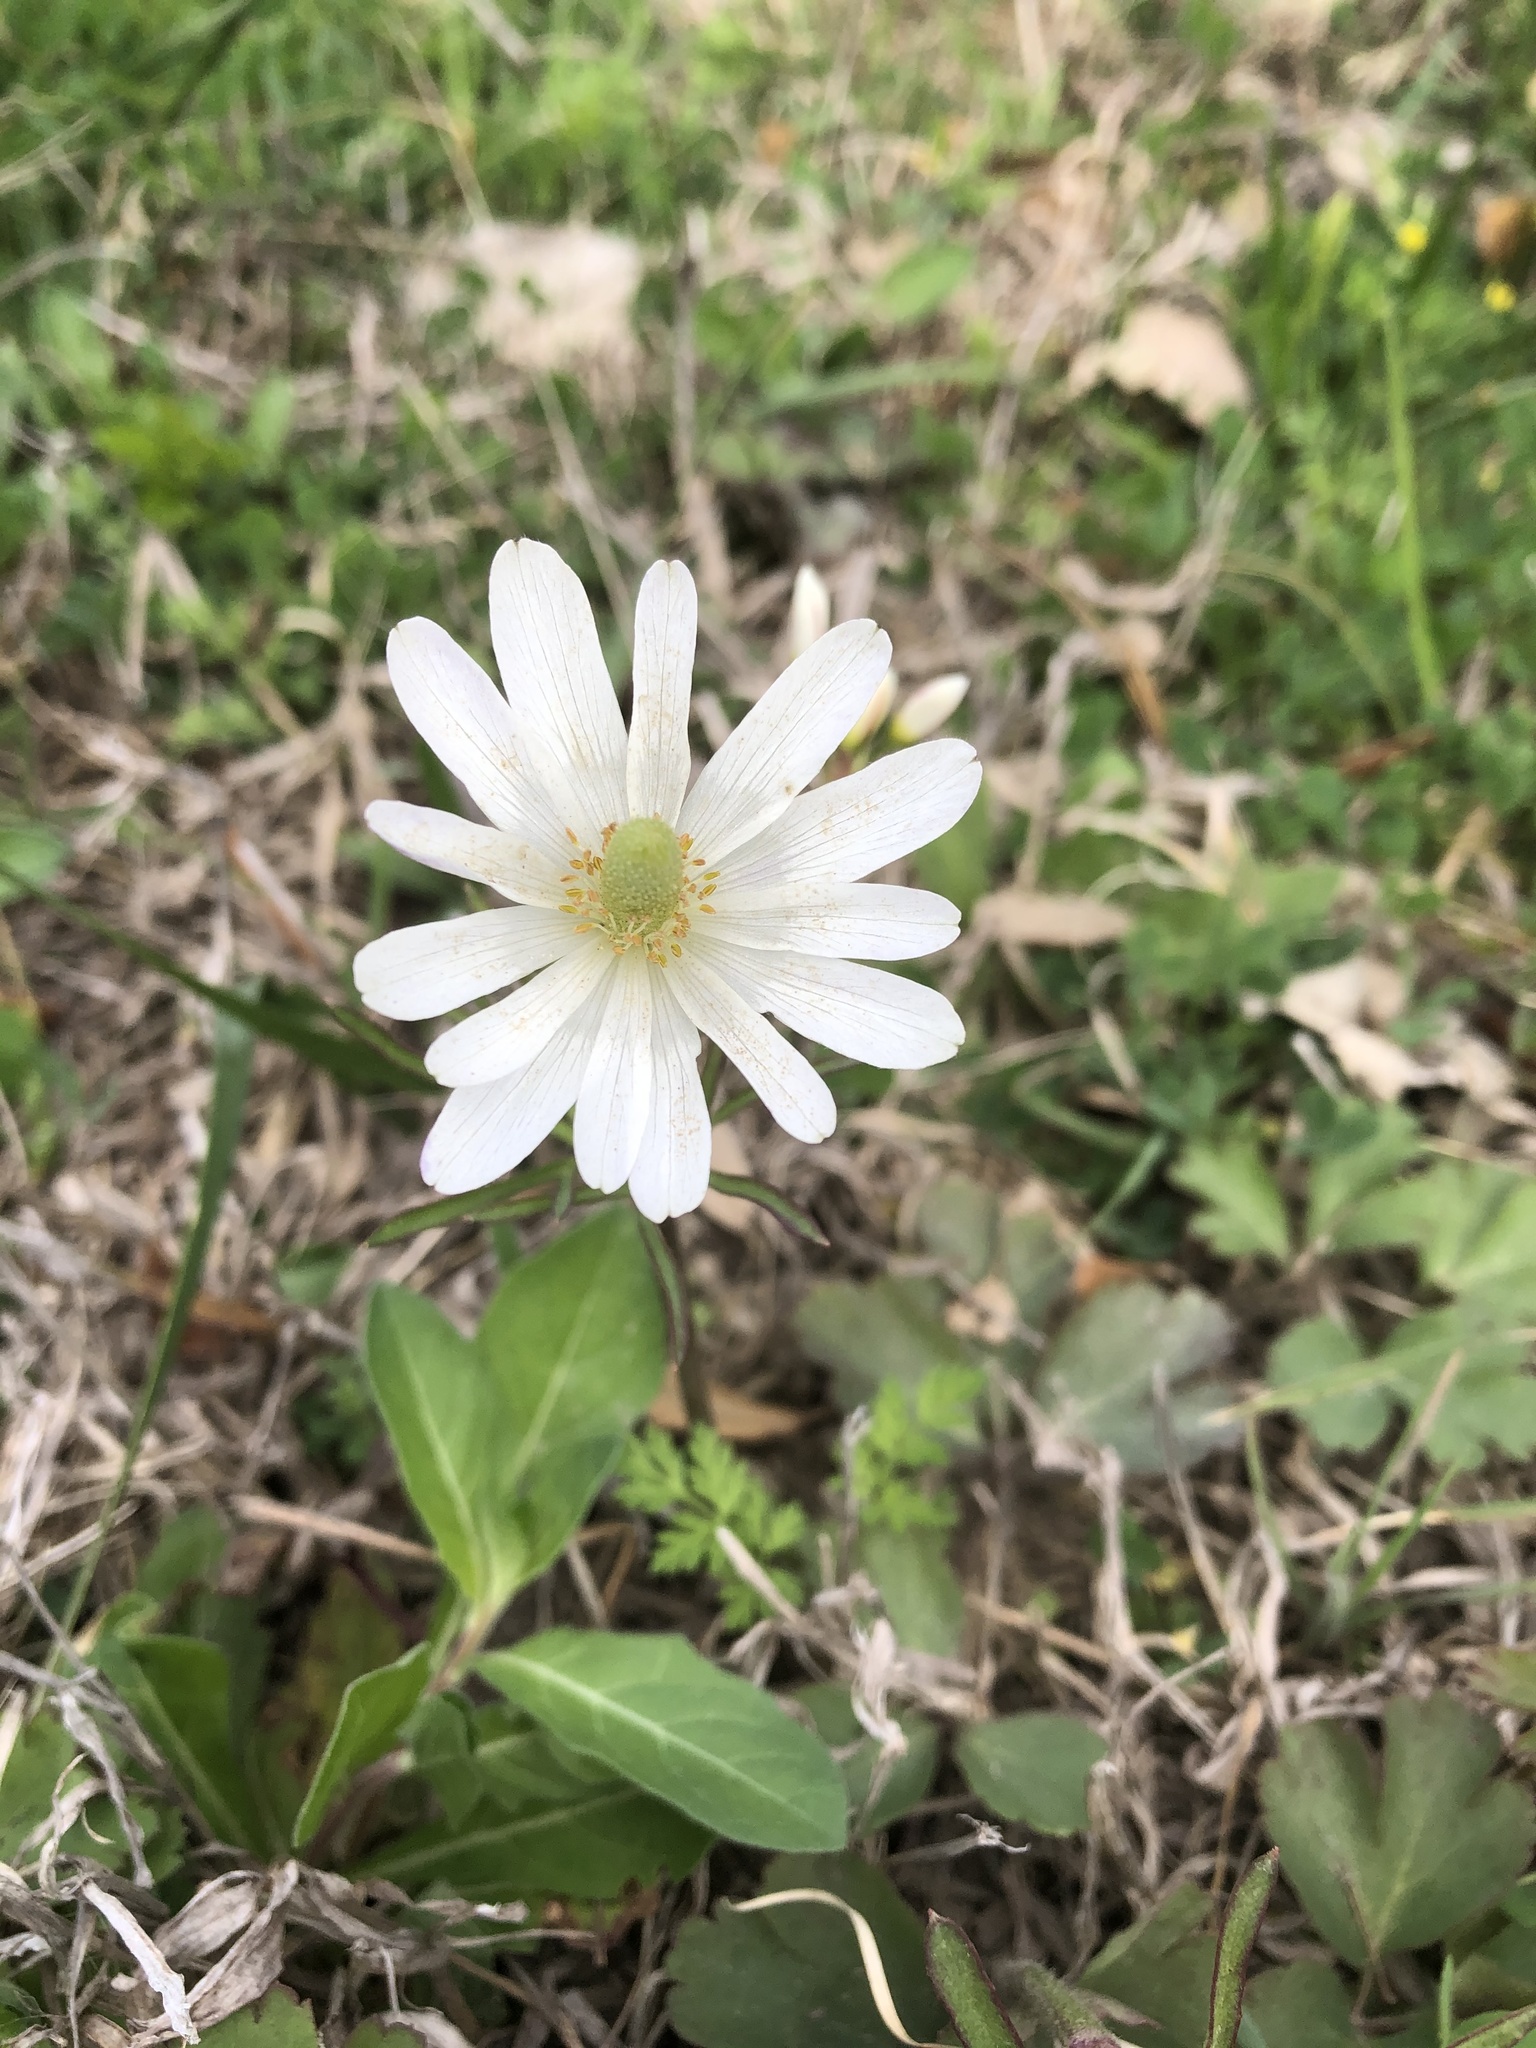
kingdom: Plantae
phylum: Tracheophyta
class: Magnoliopsida
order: Ranunculales
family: Ranunculaceae
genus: Anemone
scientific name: Anemone berlandieri
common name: Ten-petal anemone
